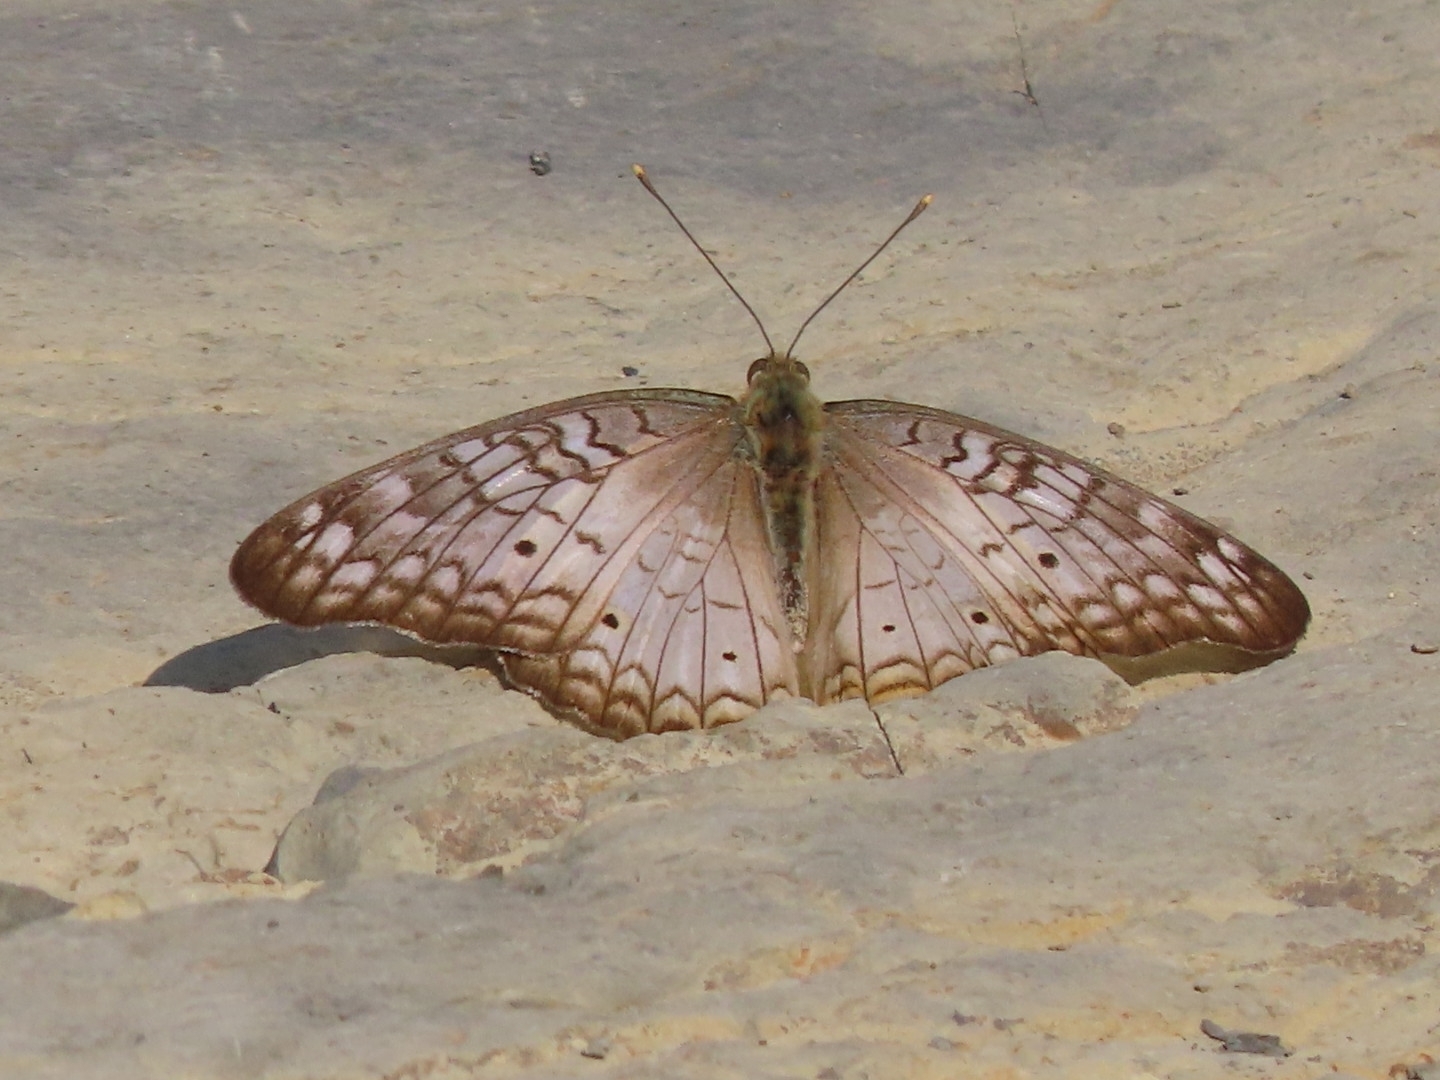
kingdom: Animalia
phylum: Arthropoda
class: Insecta
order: Lepidoptera
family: Nymphalidae
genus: Anartia
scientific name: Anartia jatrophae
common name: White peacock
